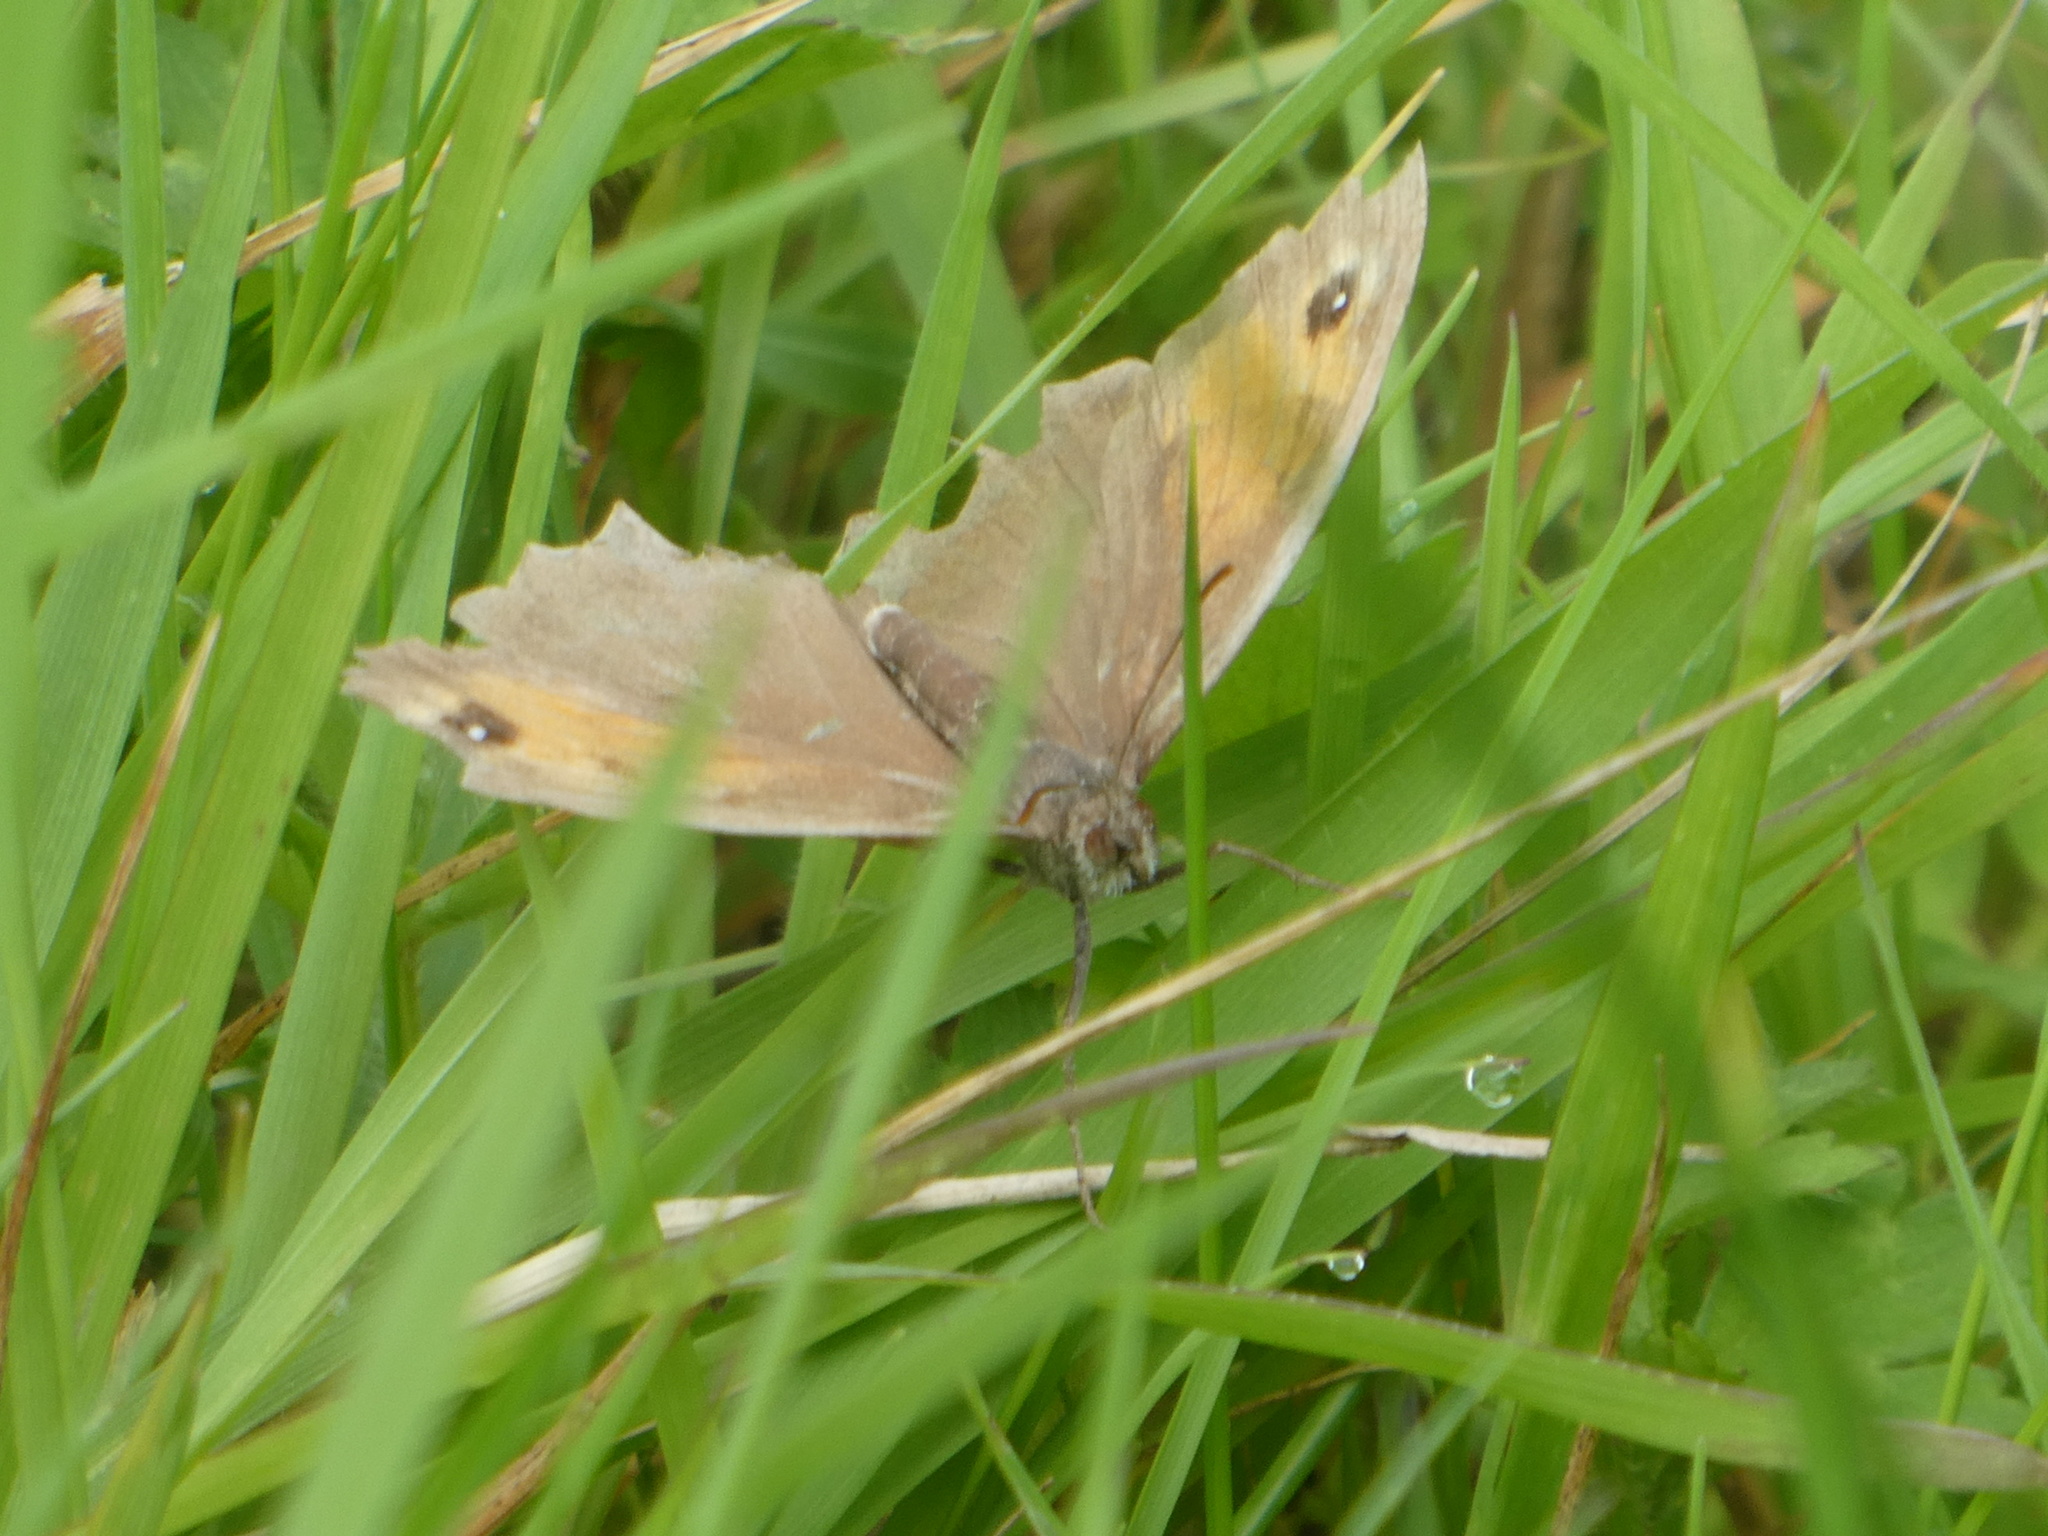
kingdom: Animalia
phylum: Arthropoda
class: Insecta
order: Lepidoptera
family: Nymphalidae
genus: Maniola
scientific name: Maniola jurtina
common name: Meadow brown
